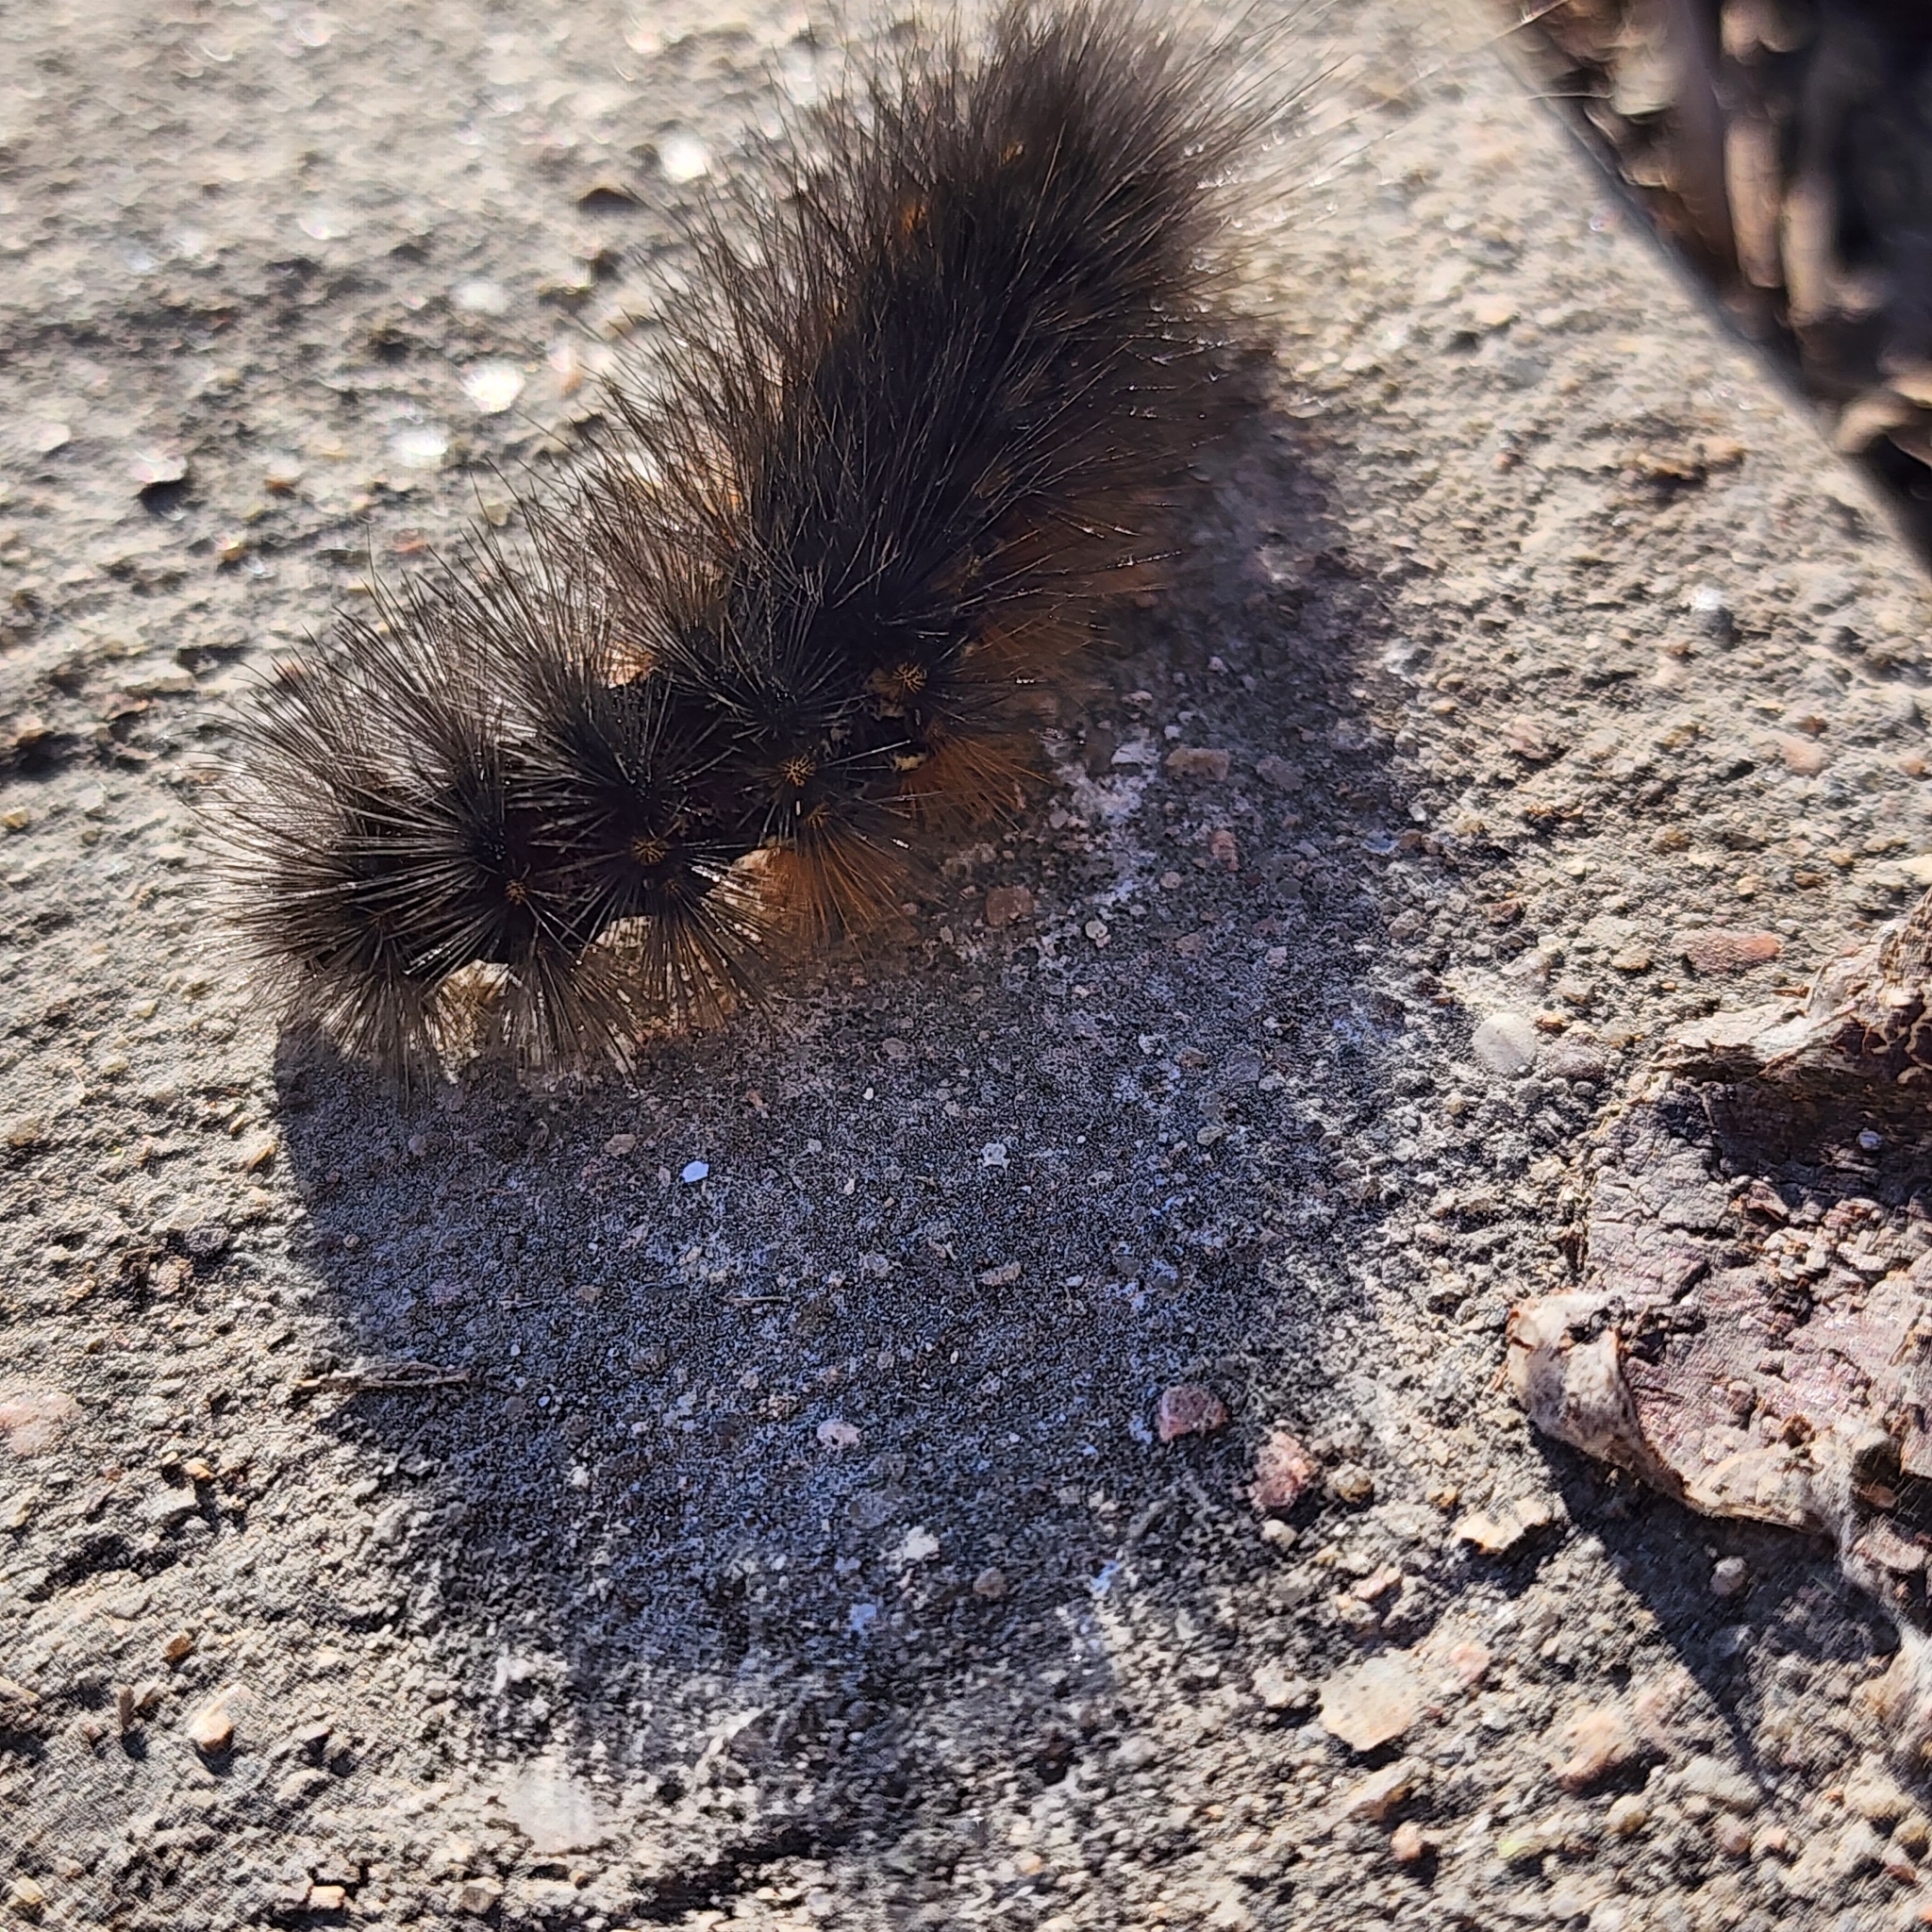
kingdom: Animalia
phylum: Arthropoda
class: Insecta
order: Lepidoptera
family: Erebidae
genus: Estigmene
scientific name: Estigmene acrea
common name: Salt marsh moth
